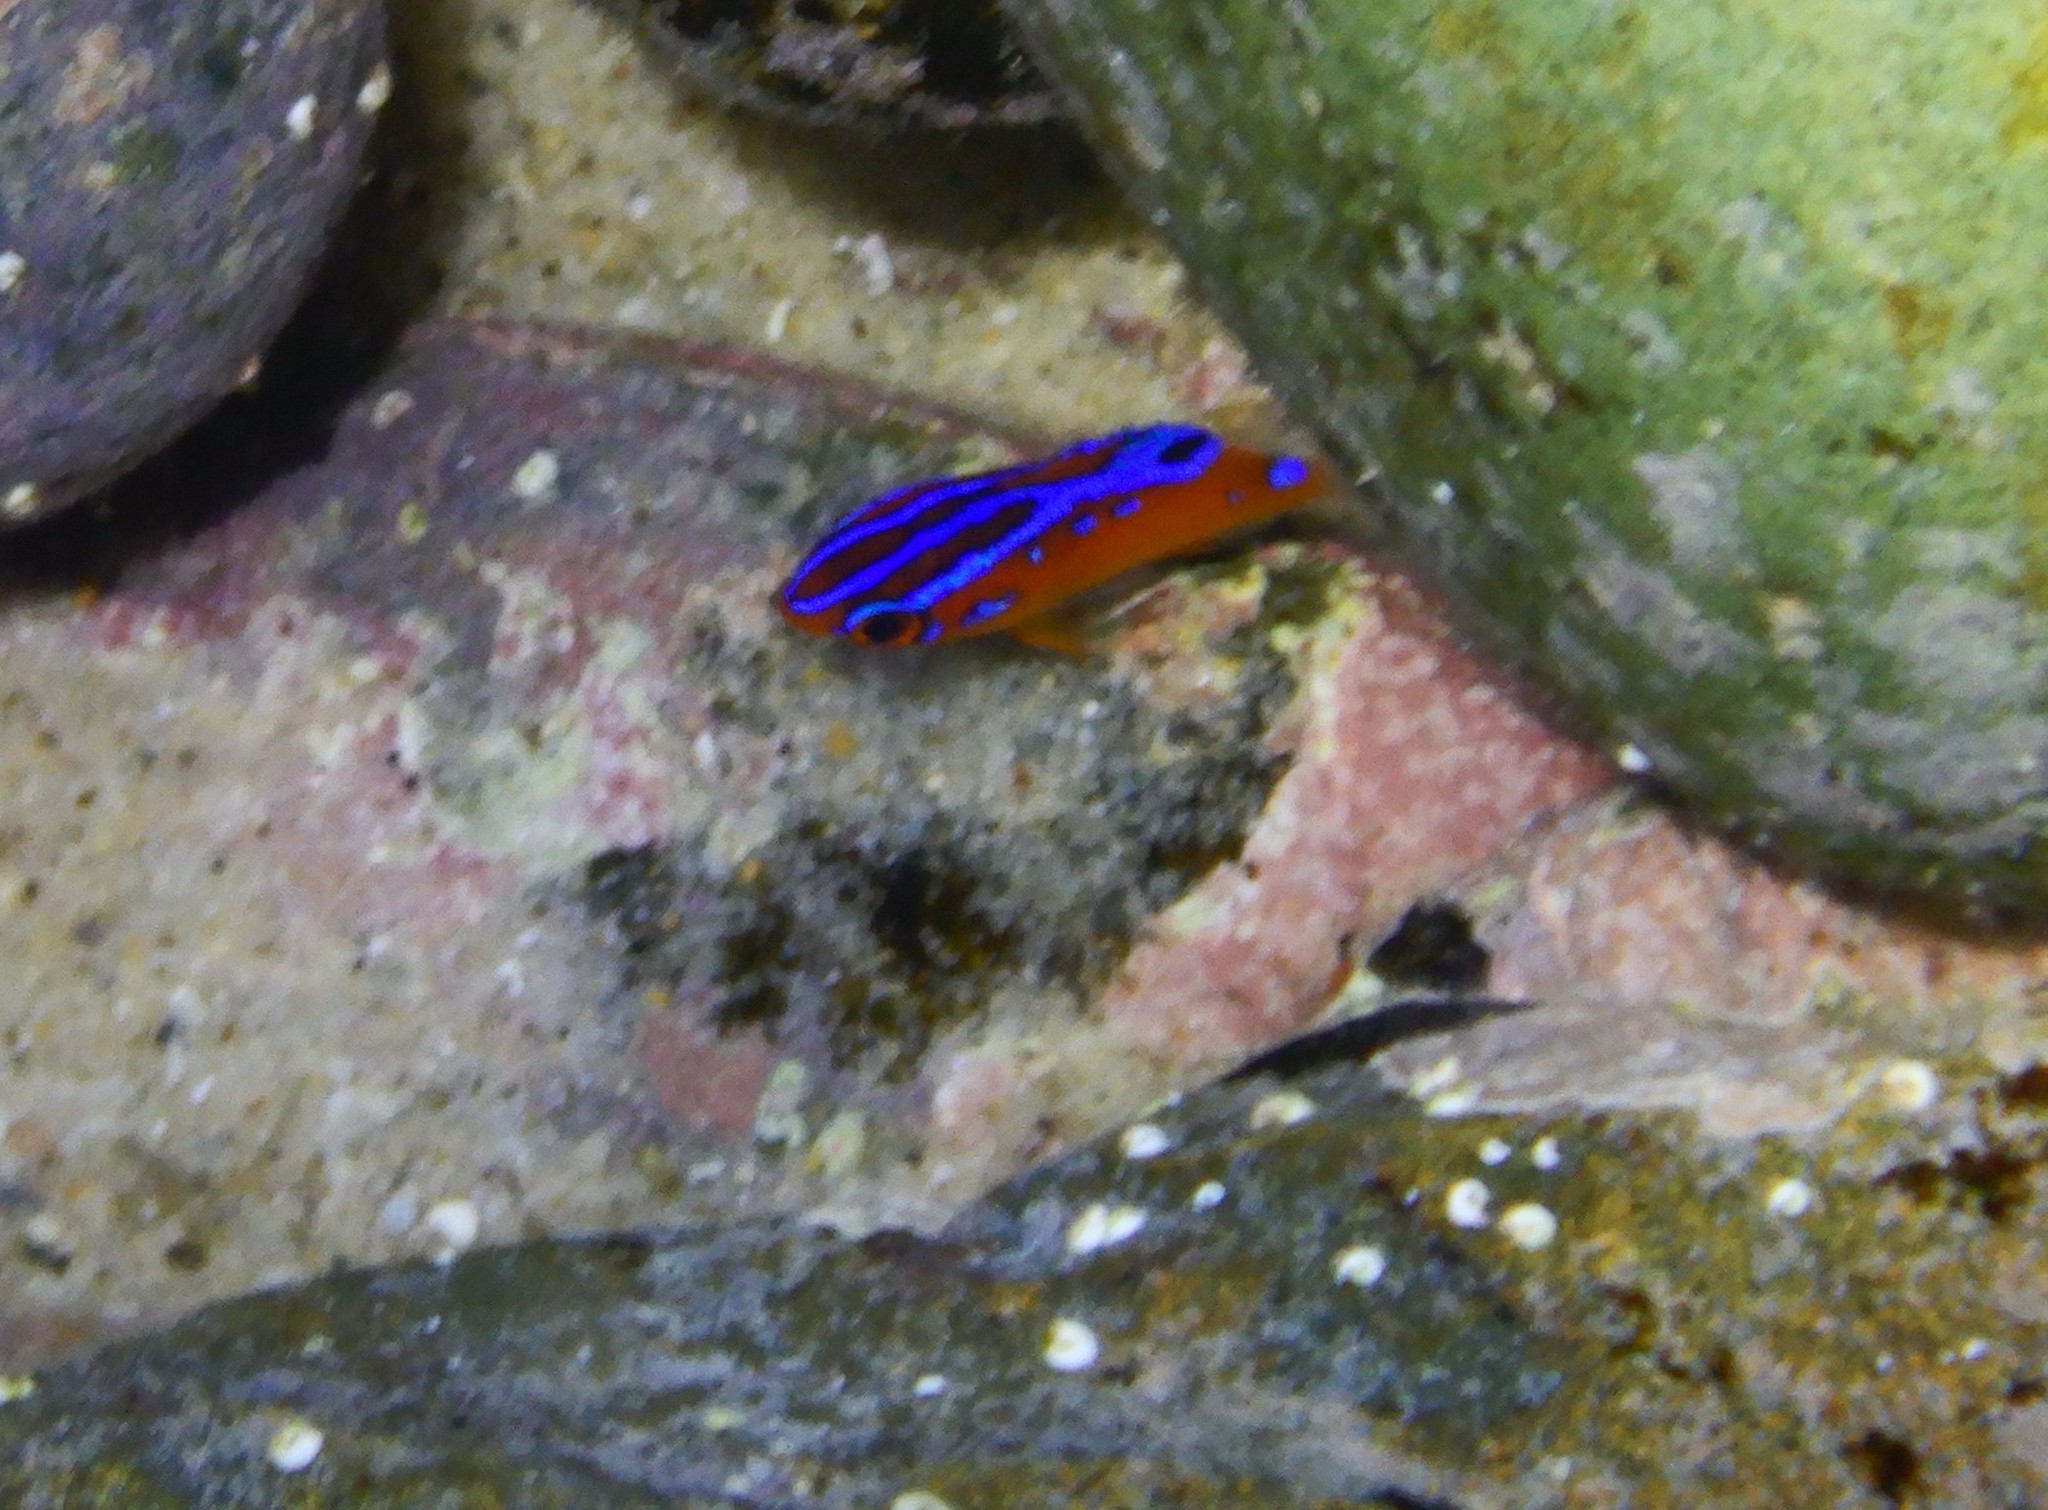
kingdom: Animalia
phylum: Chordata
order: Perciformes
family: Pomacentridae
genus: Parma
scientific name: Parma microlepis
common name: White-ear
